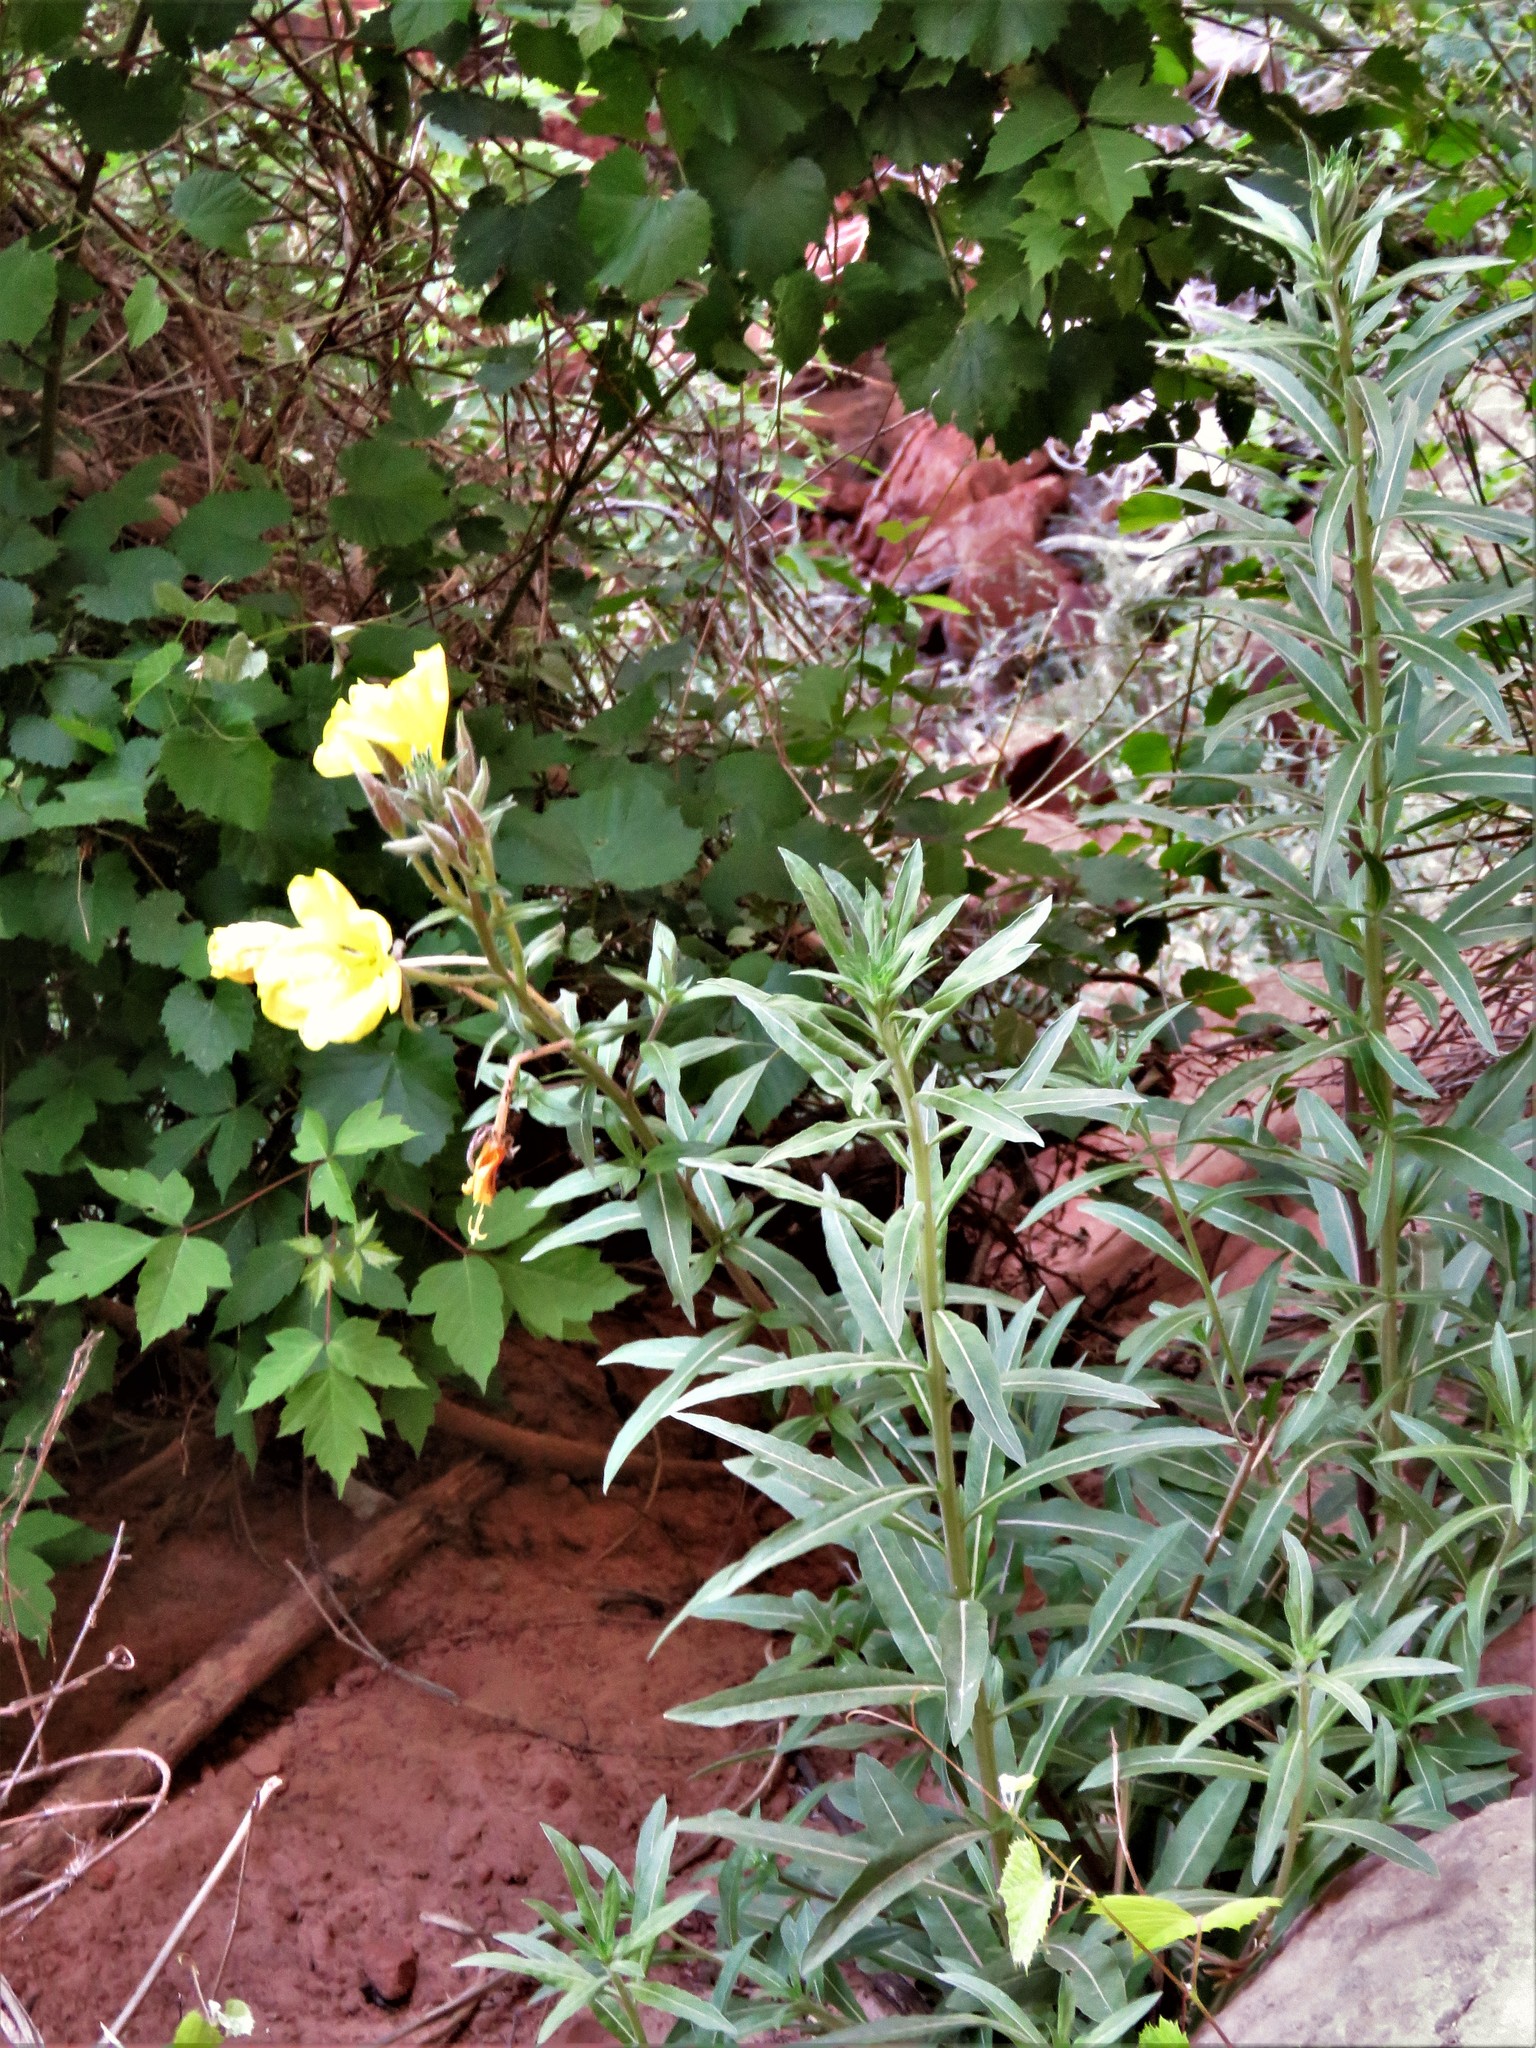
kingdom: Plantae
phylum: Tracheophyta
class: Magnoliopsida
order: Myrtales
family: Onagraceae
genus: Oenothera
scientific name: Oenothera longissima
